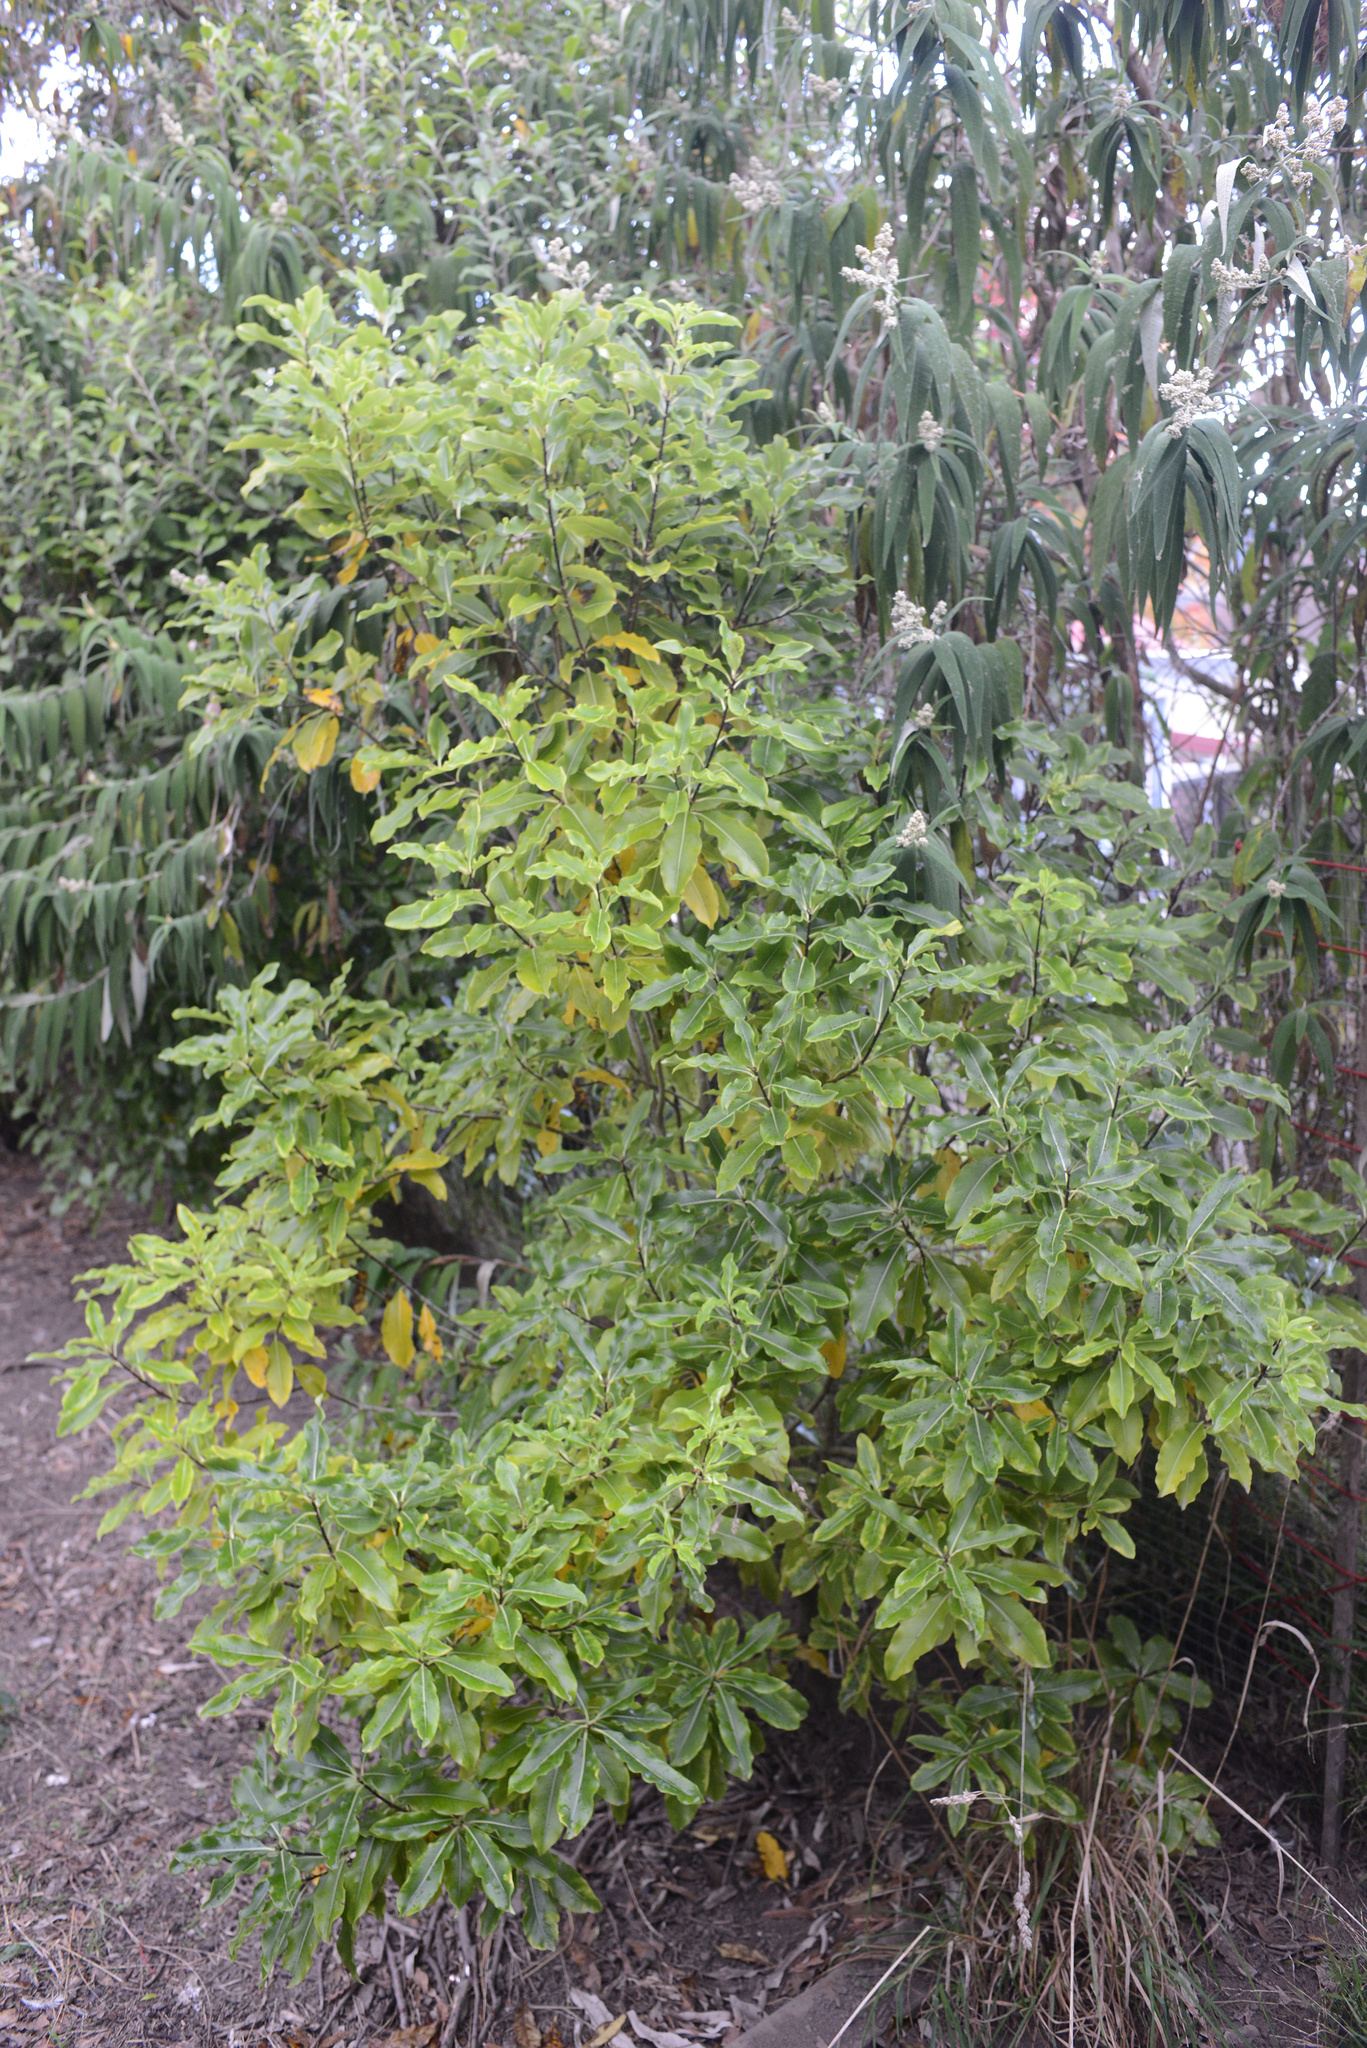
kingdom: Plantae
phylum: Tracheophyta
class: Magnoliopsida
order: Apiales
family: Pittosporaceae
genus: Pittosporum
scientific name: Pittosporum eugenioides
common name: Lemonwood
